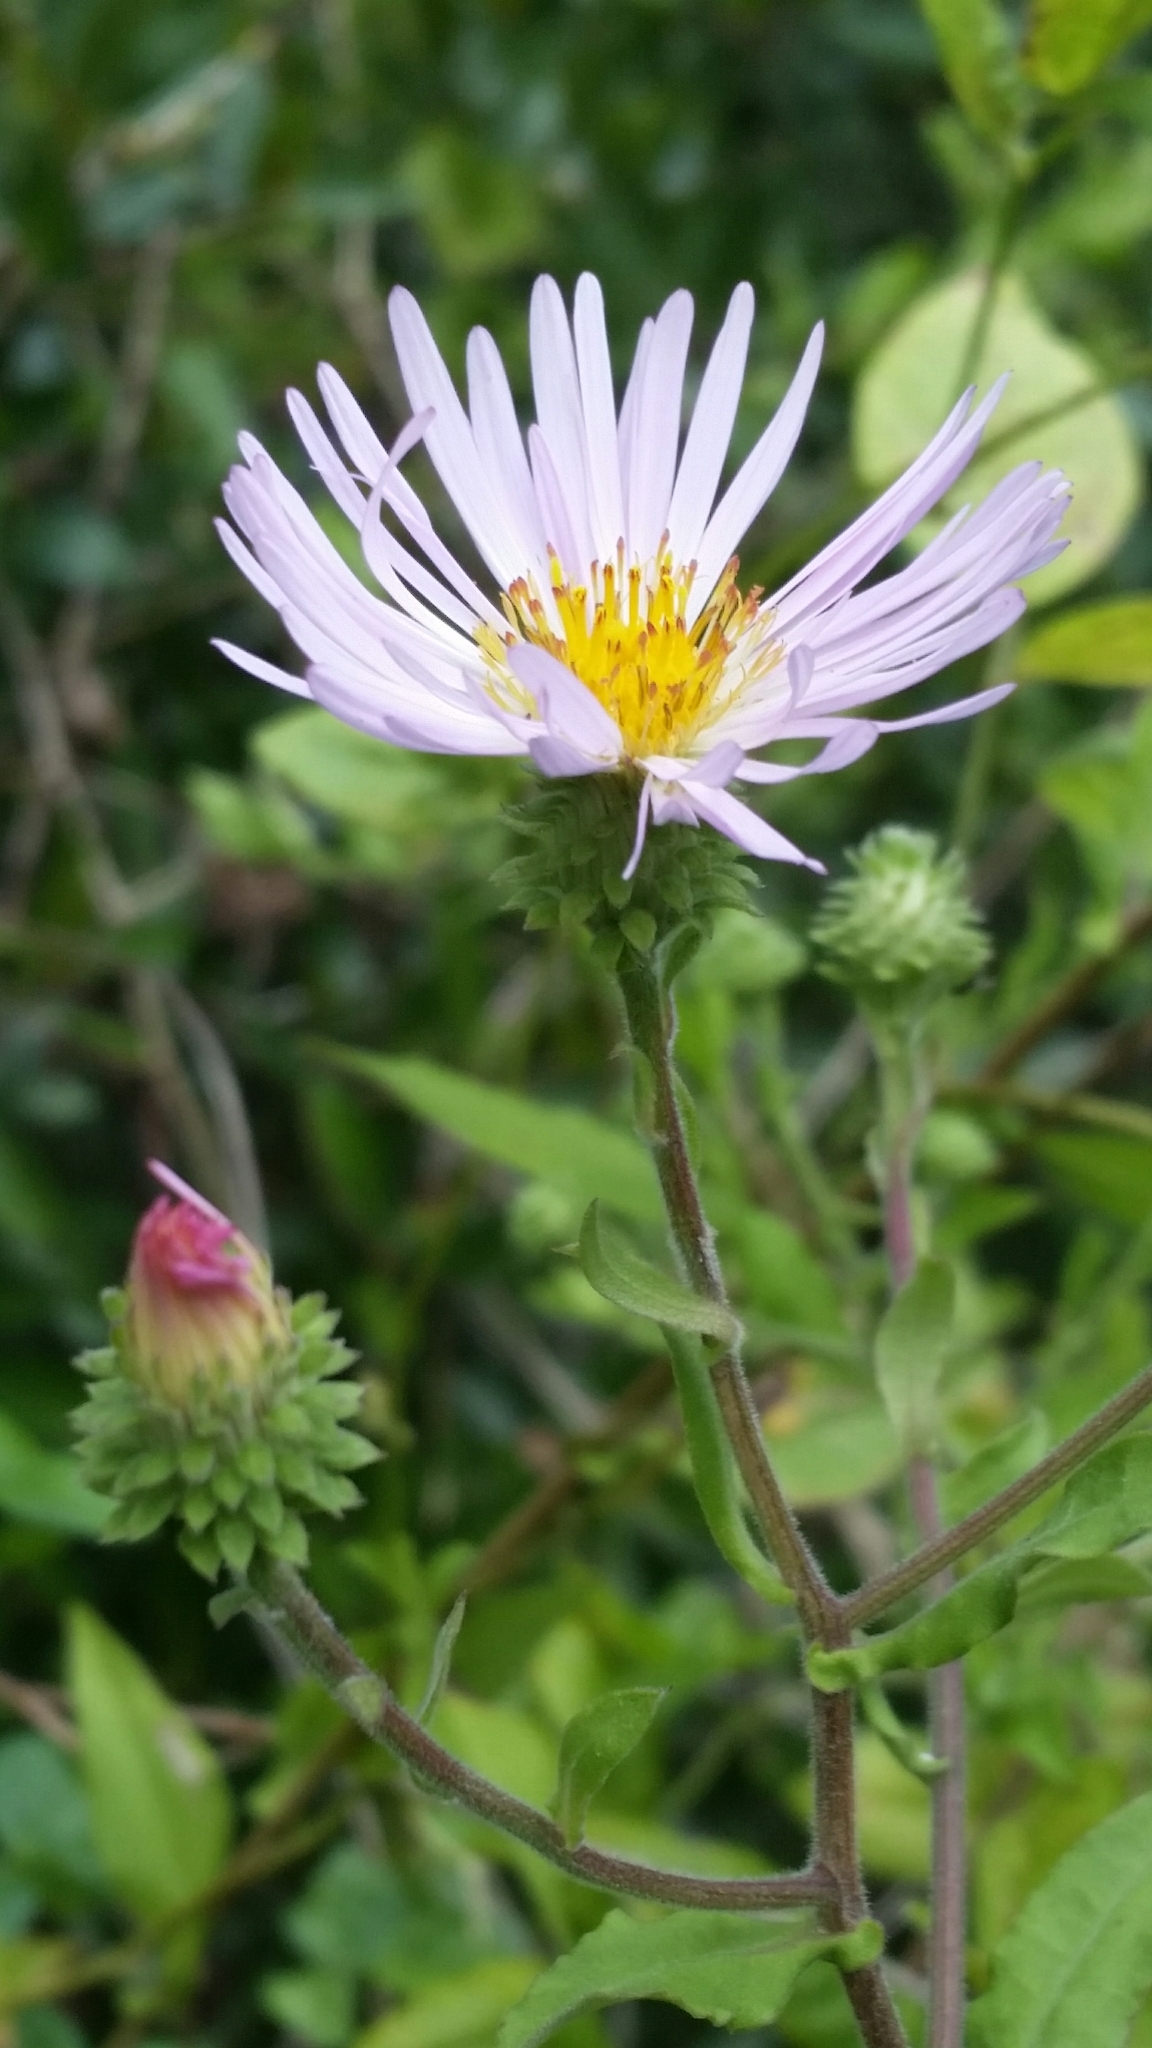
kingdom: Plantae
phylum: Tracheophyta
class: Magnoliopsida
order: Asterales
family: Asteraceae
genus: Ampelaster
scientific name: Ampelaster carolinianus
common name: Climbing aster
